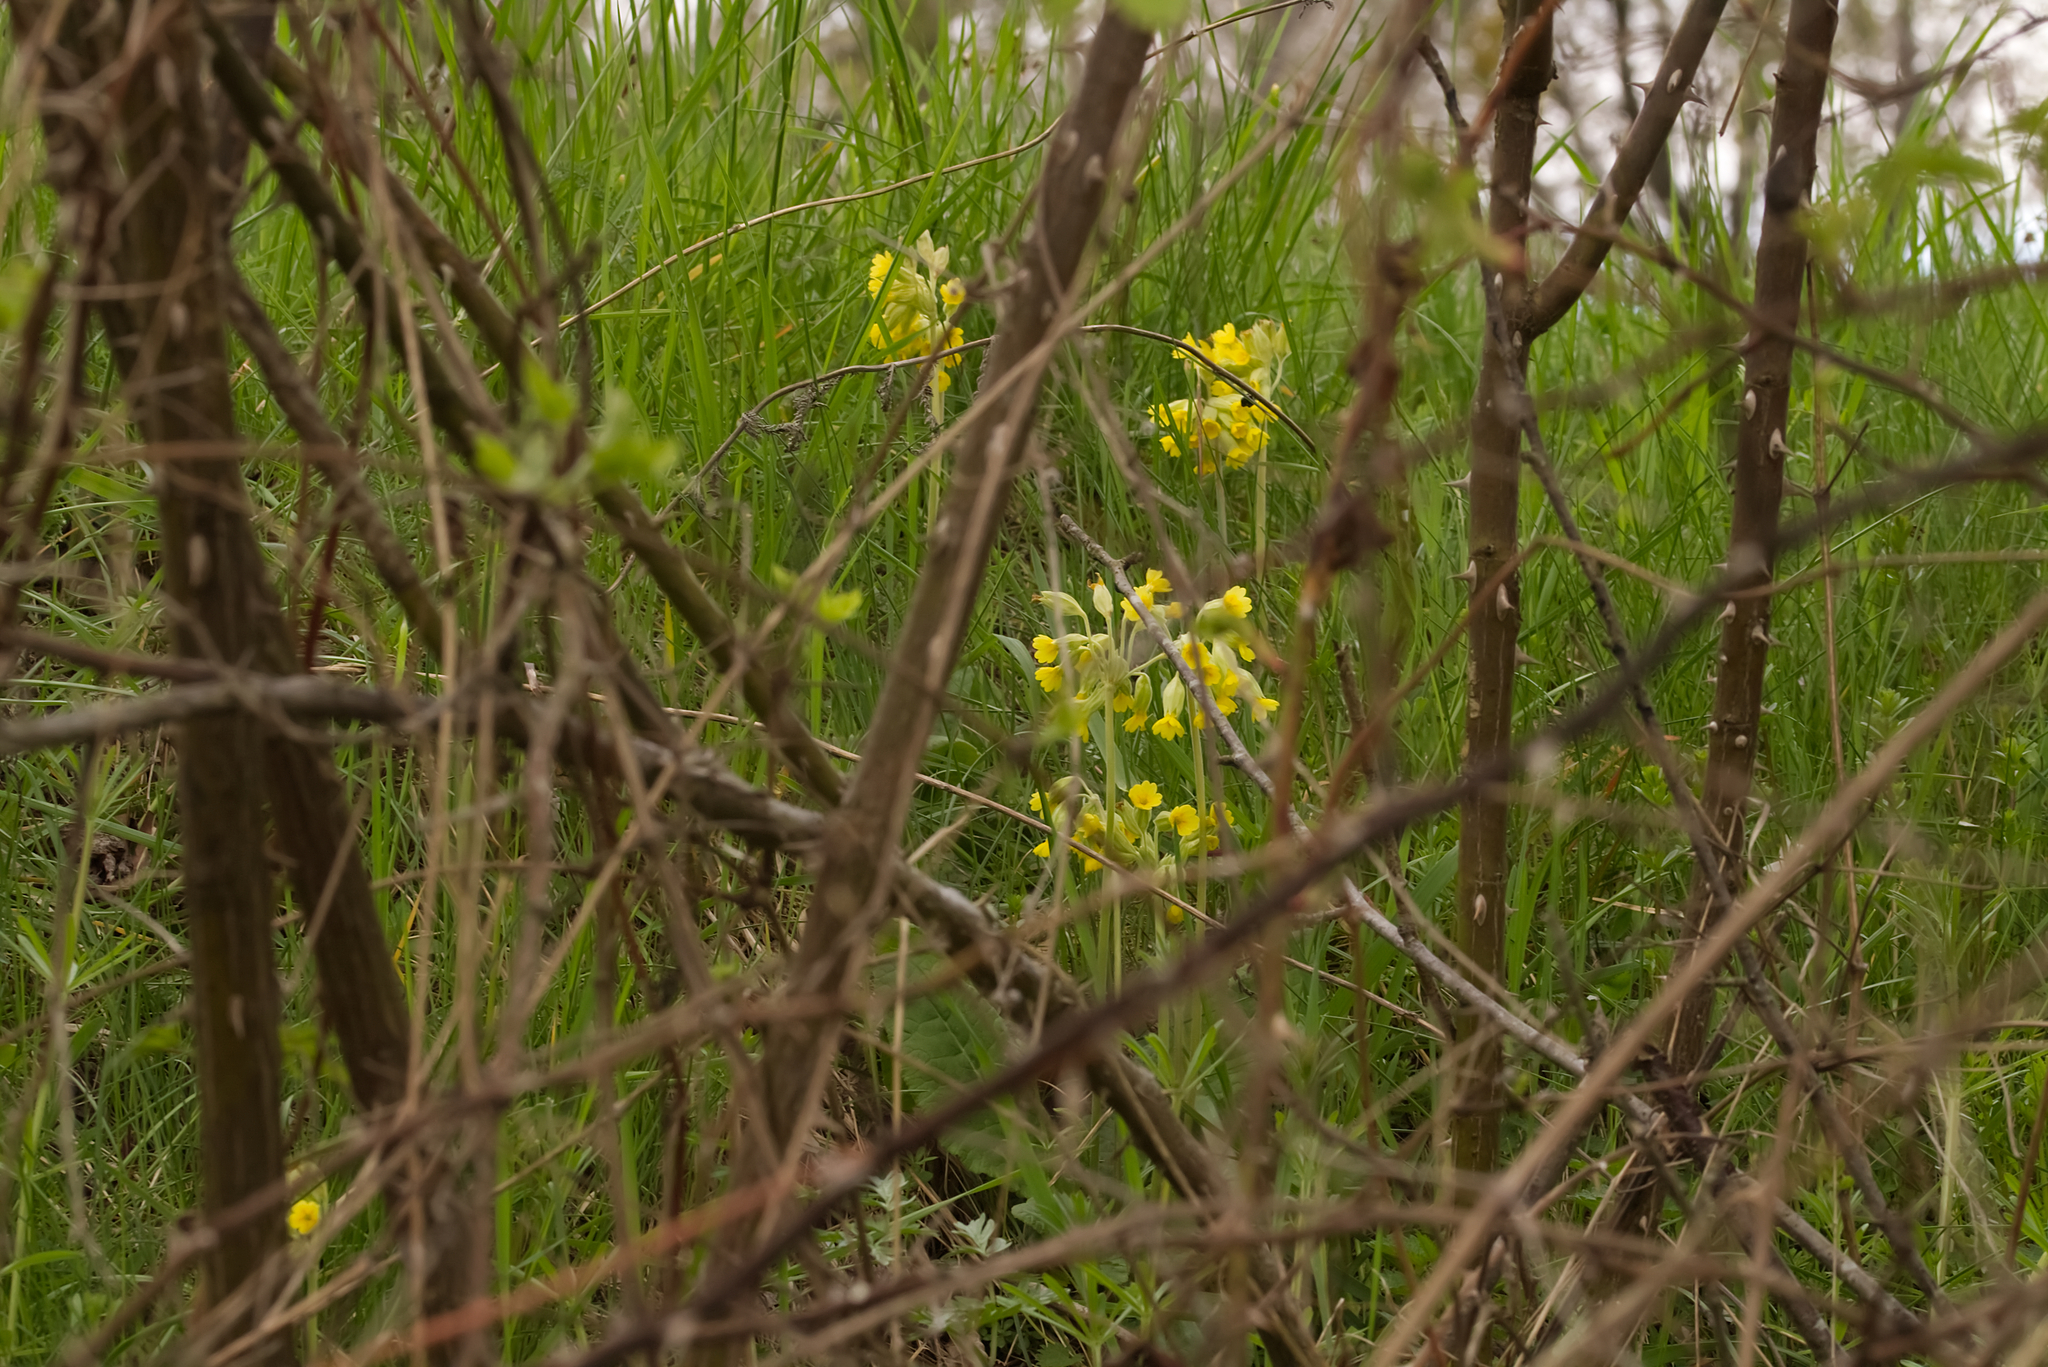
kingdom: Plantae
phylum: Tracheophyta
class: Magnoliopsida
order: Ericales
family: Primulaceae
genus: Primula
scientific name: Primula veris
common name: Cowslip
